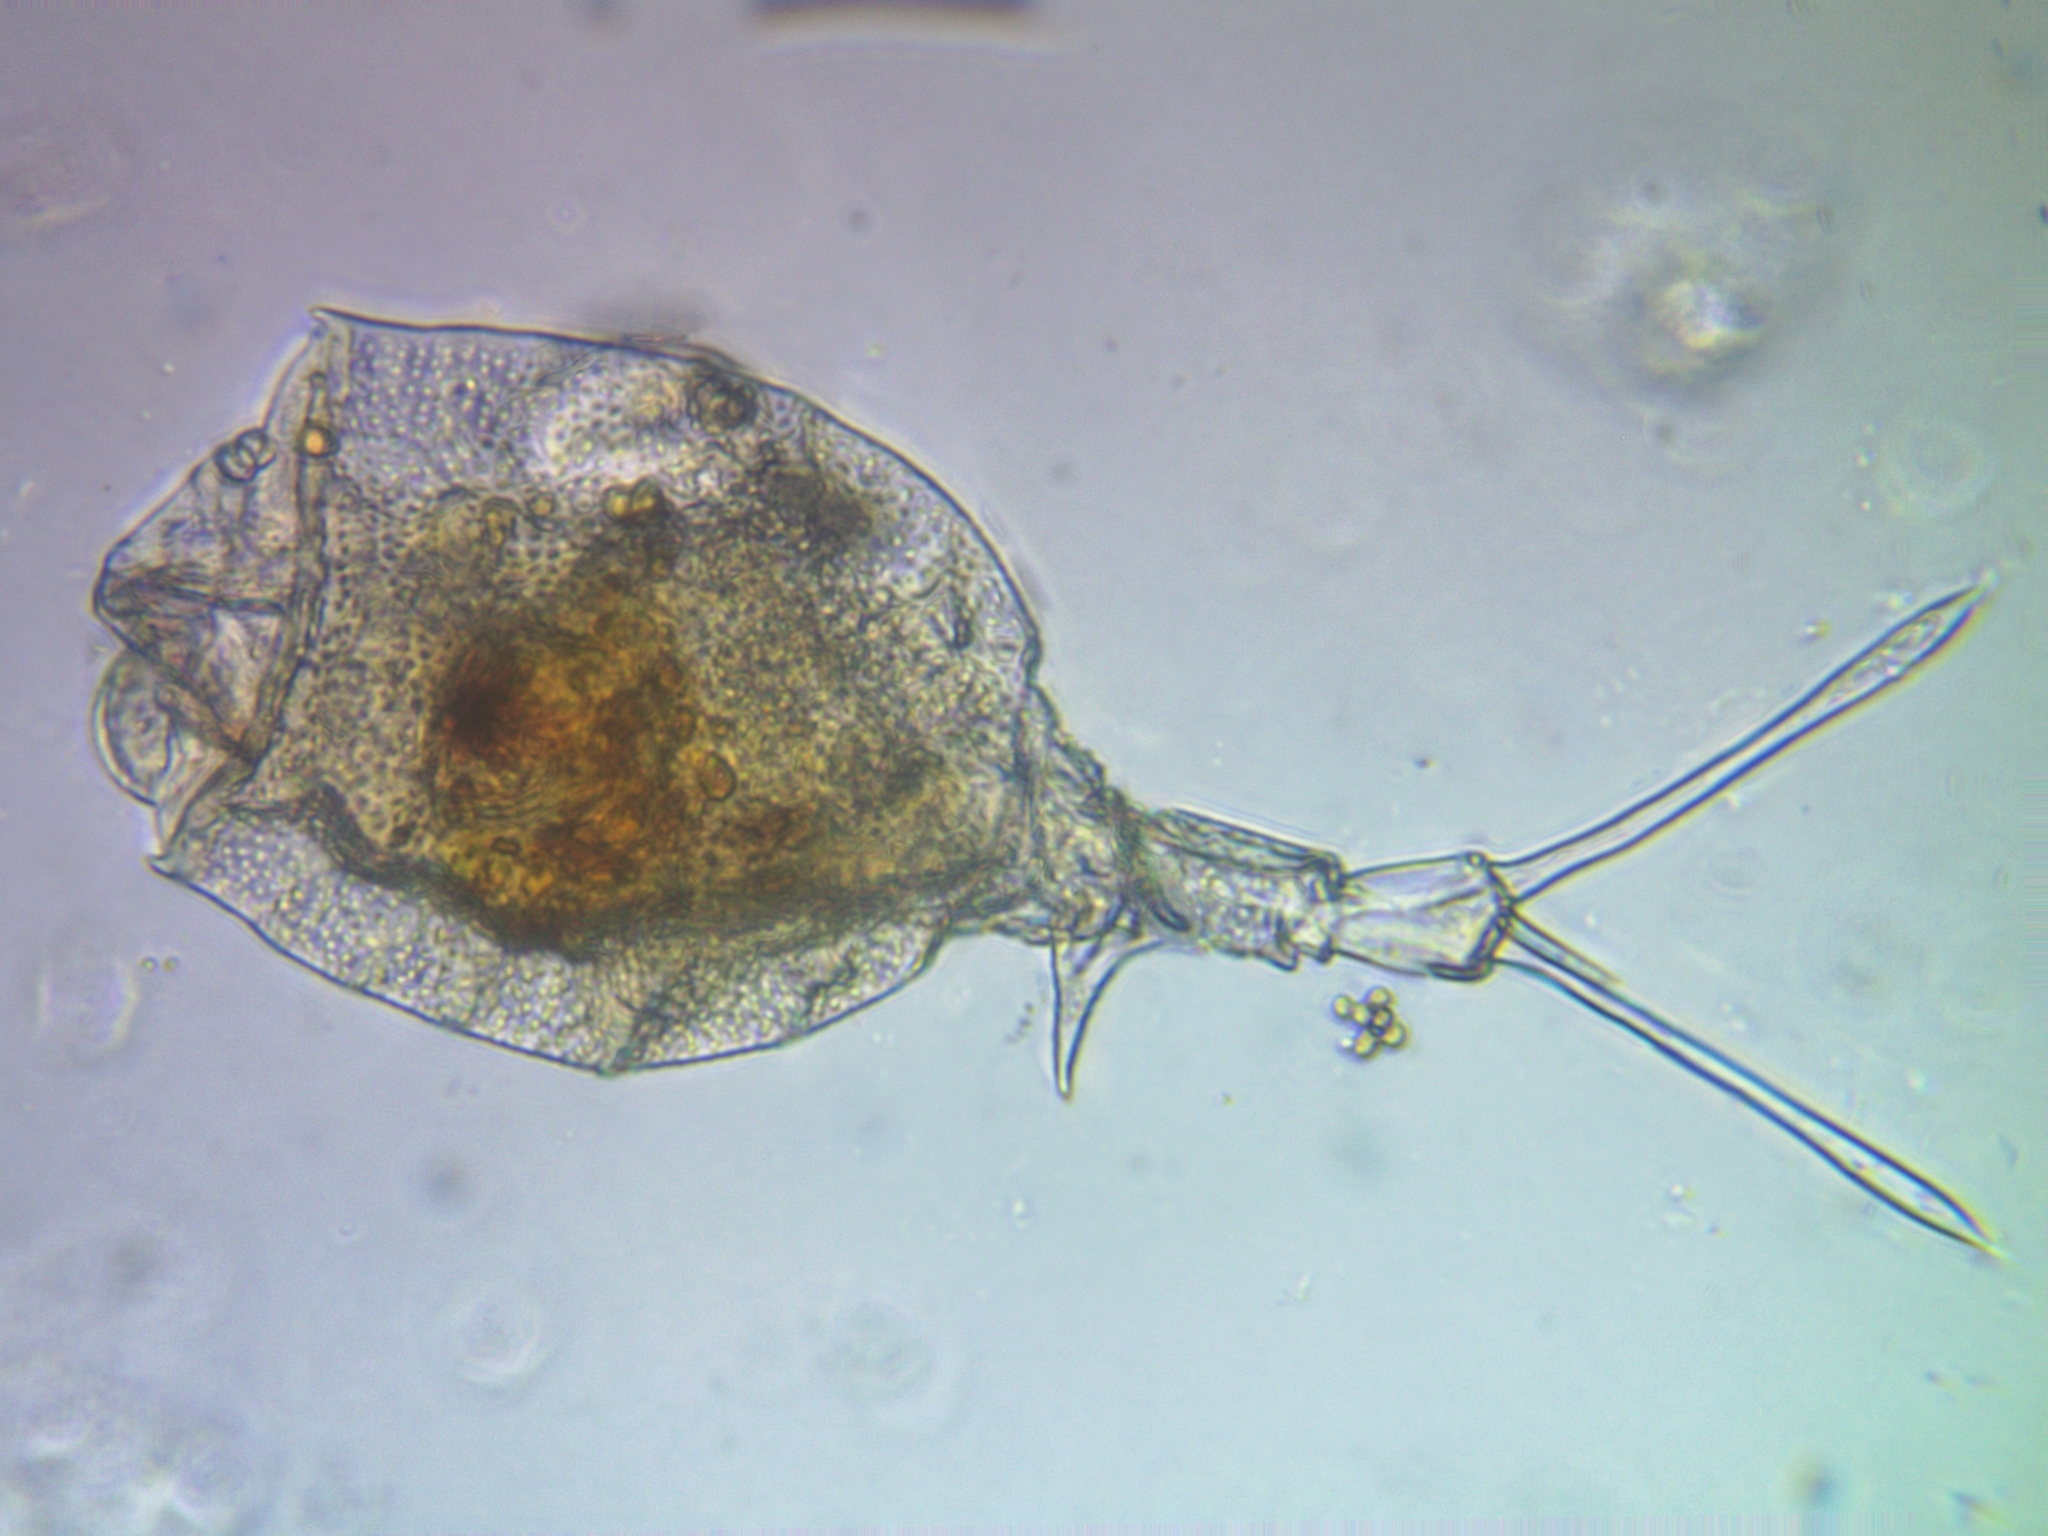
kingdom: Animalia
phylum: Rotifera
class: Eurotatoria
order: Ploima
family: Trichotriidae
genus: Trichotria
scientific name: Trichotria pocillum
